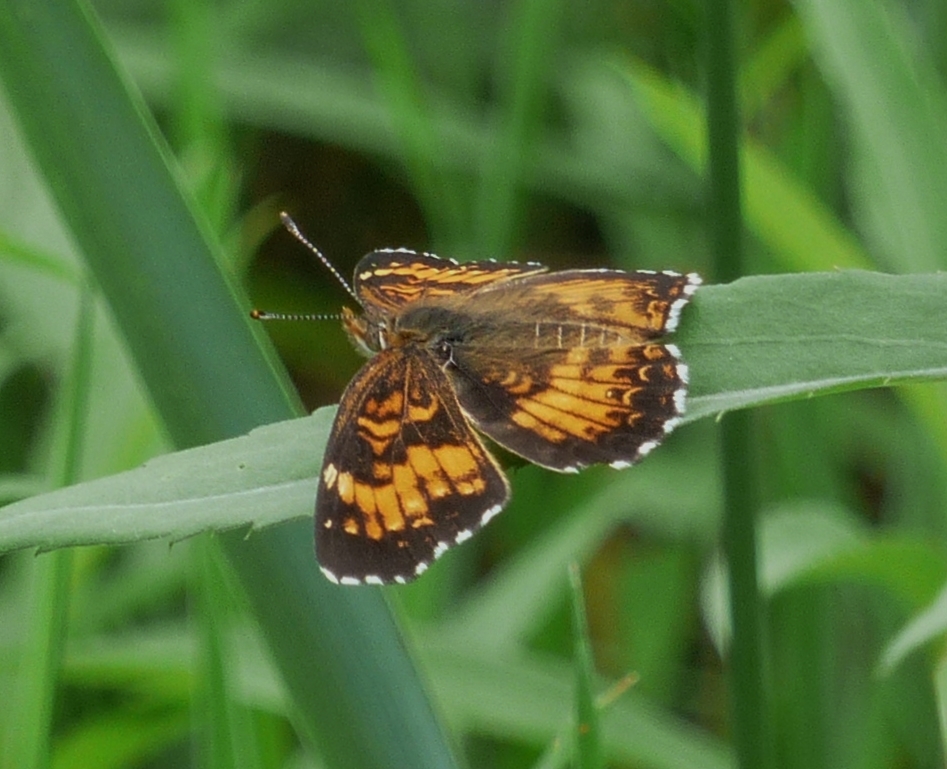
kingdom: Animalia
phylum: Arthropoda
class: Insecta
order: Lepidoptera
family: Nymphalidae
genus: Chlosyne
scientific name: Chlosyne harrisii
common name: Harris's checkerspot
